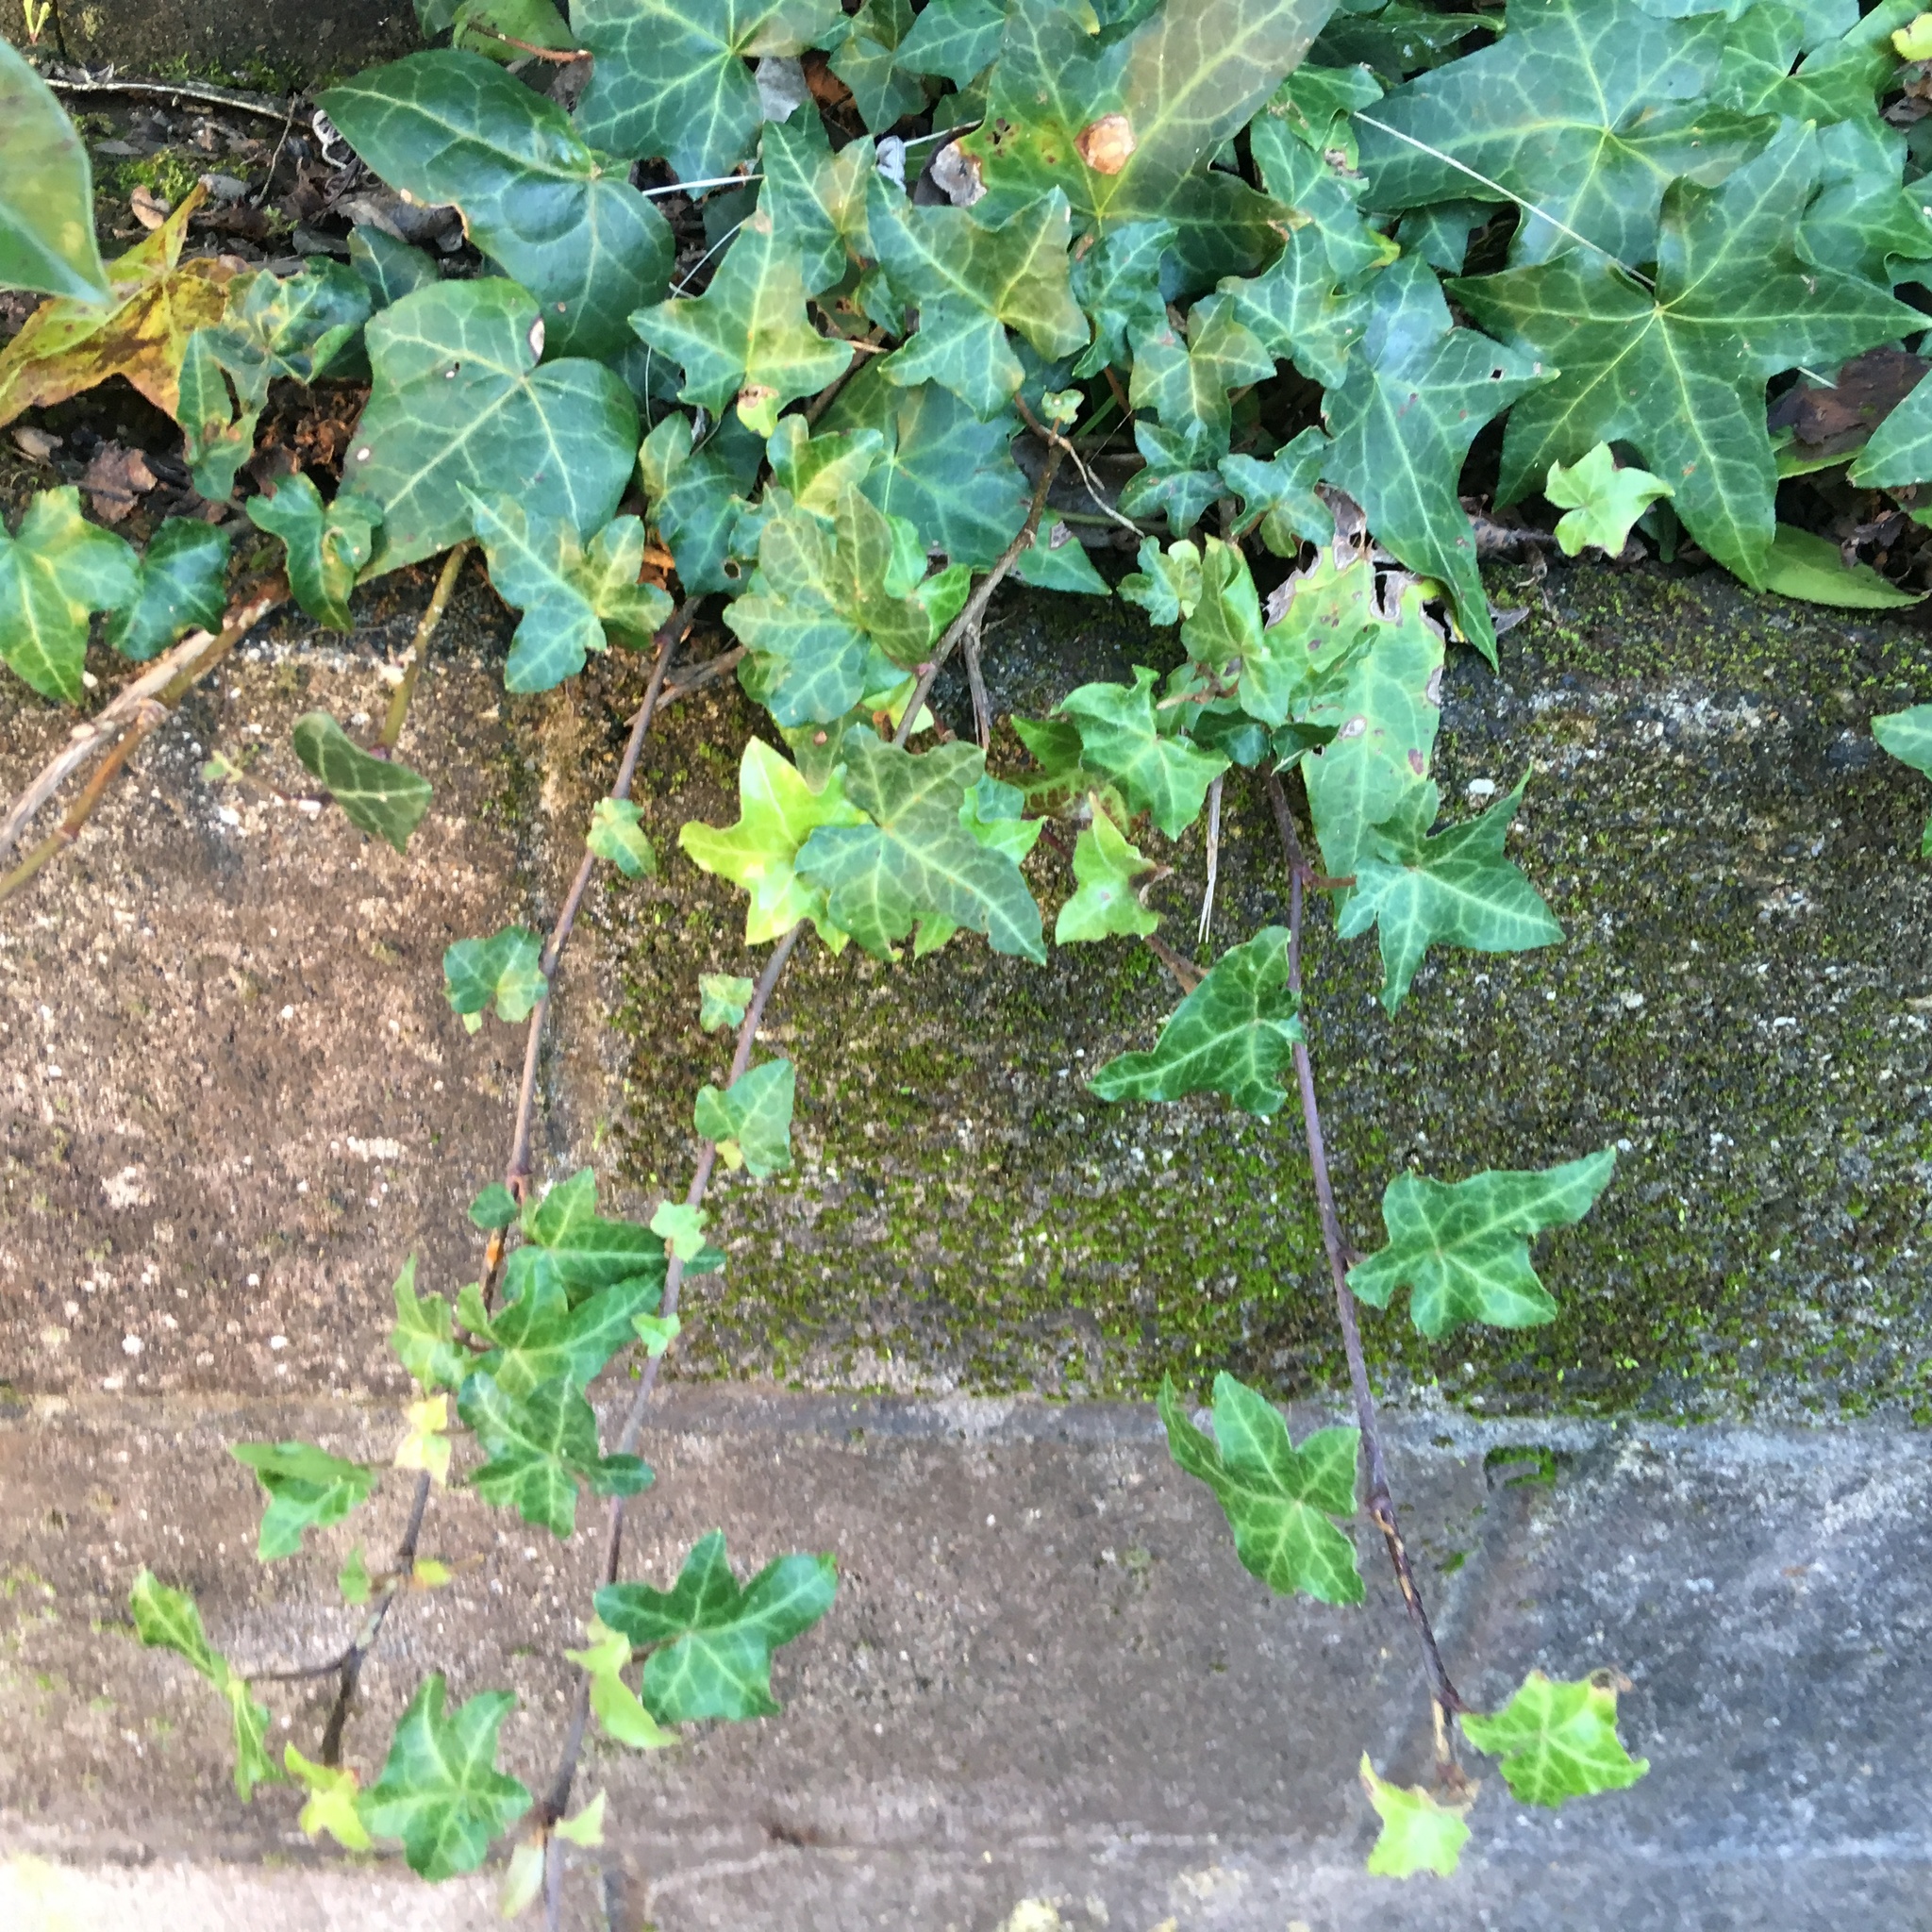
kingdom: Plantae
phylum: Tracheophyta
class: Magnoliopsida
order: Apiales
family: Araliaceae
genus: Hedera
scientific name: Hedera helix
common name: Ivy
